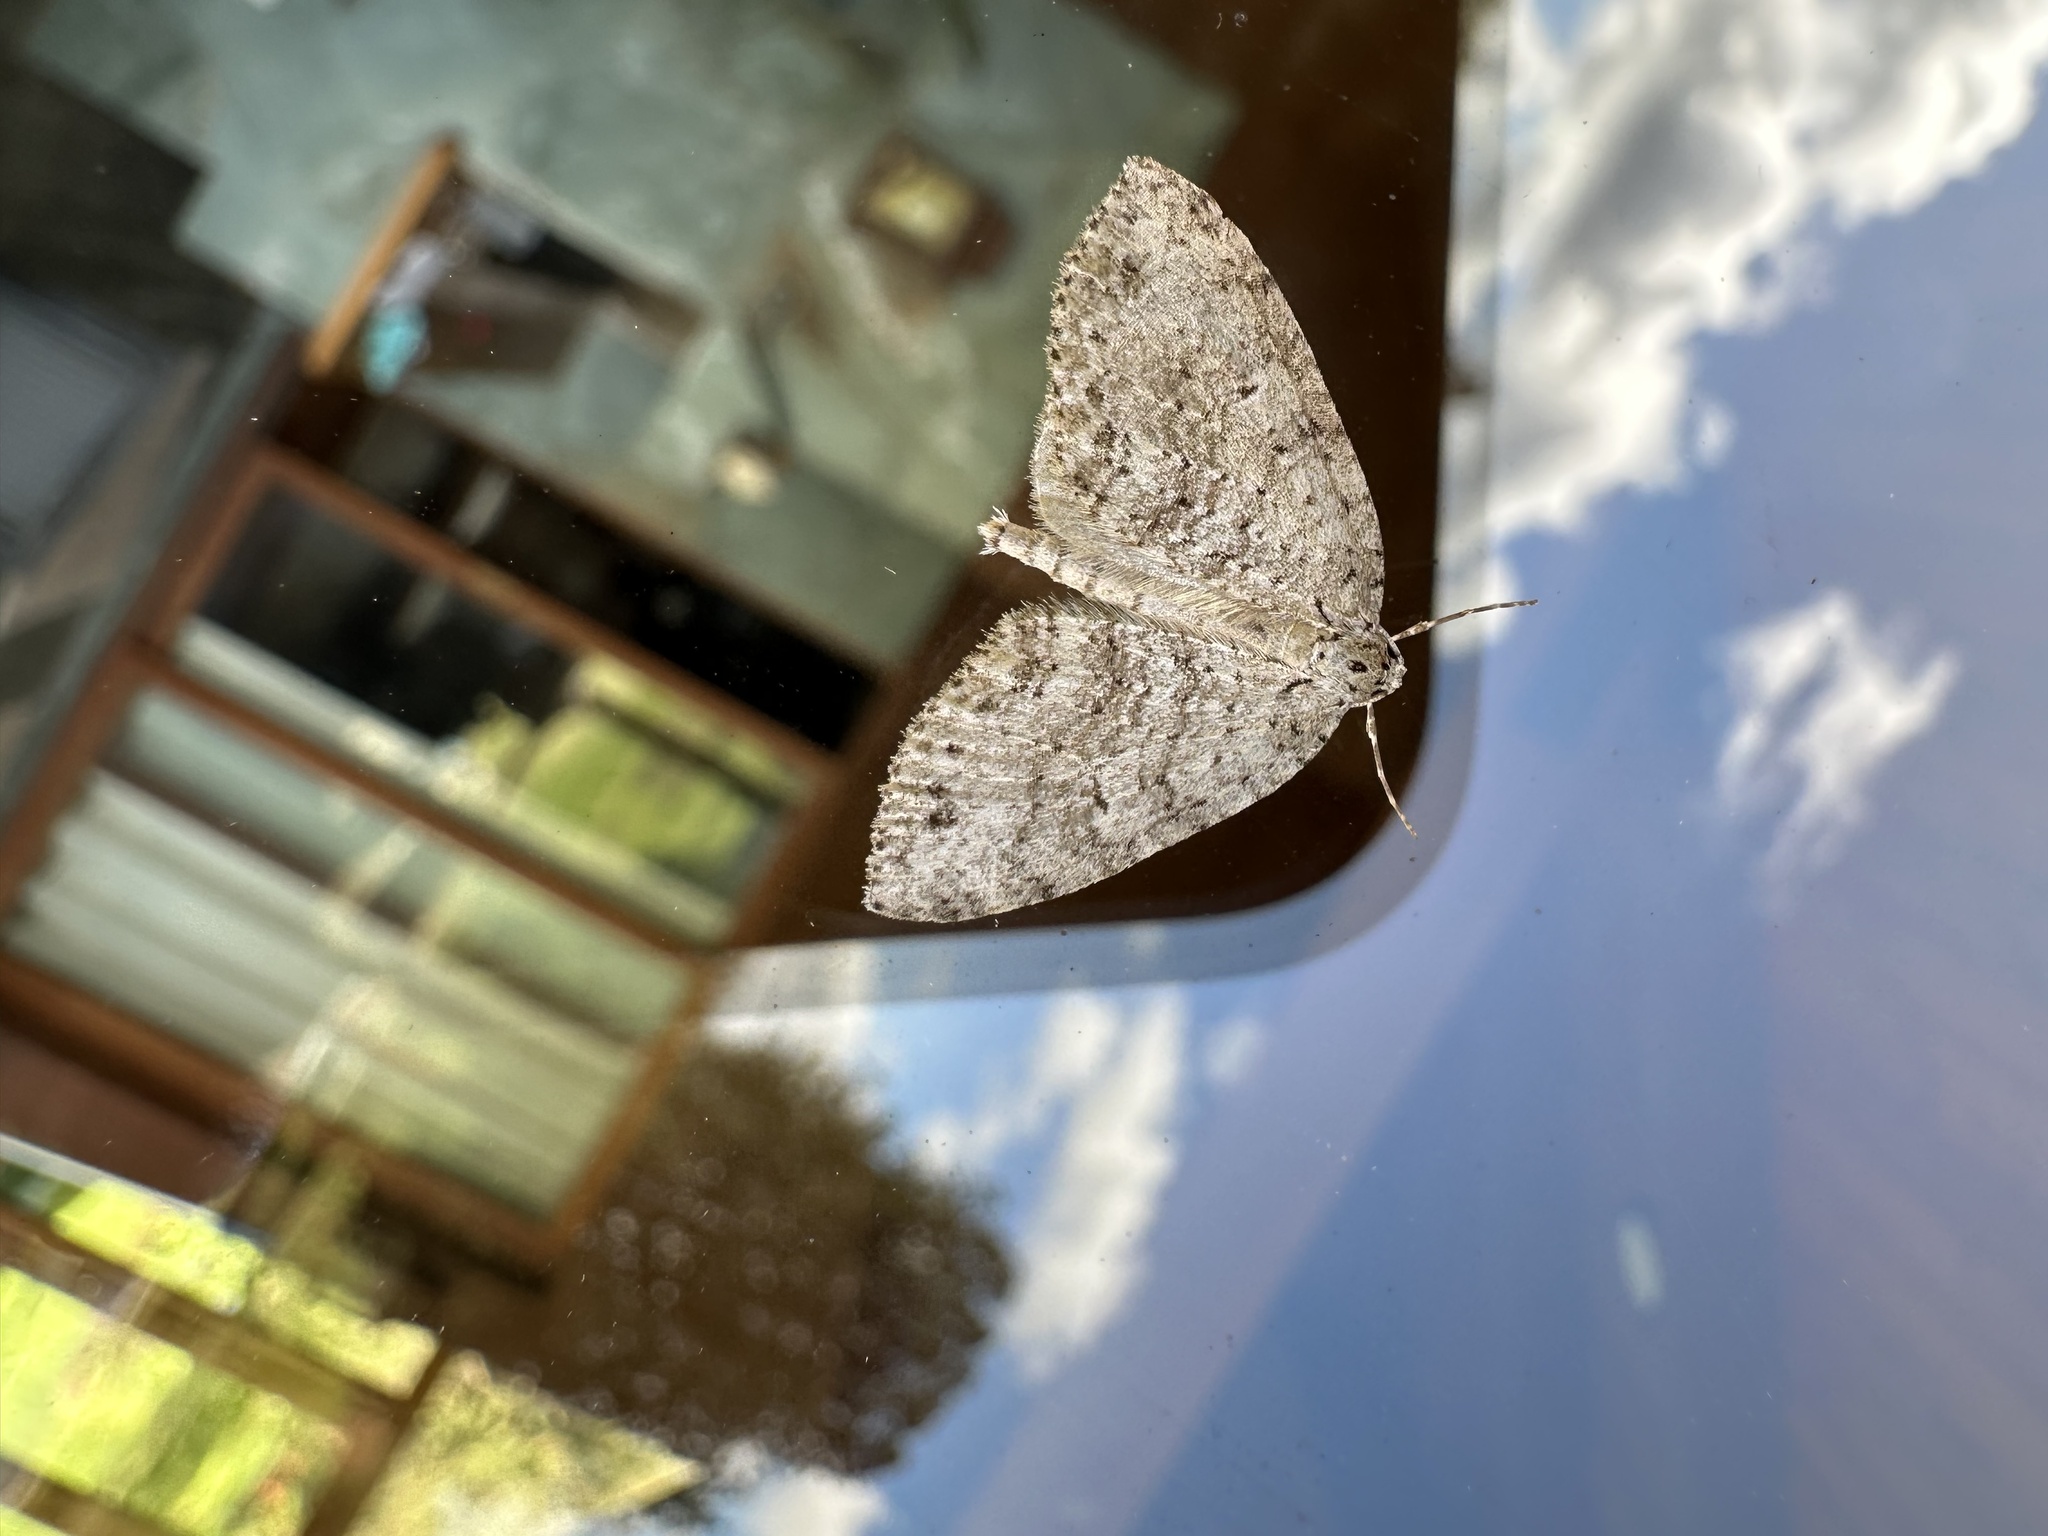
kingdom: Animalia
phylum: Arthropoda
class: Insecta
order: Lepidoptera
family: Geometridae
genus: Hoplosauris
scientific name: Hoplosauris
